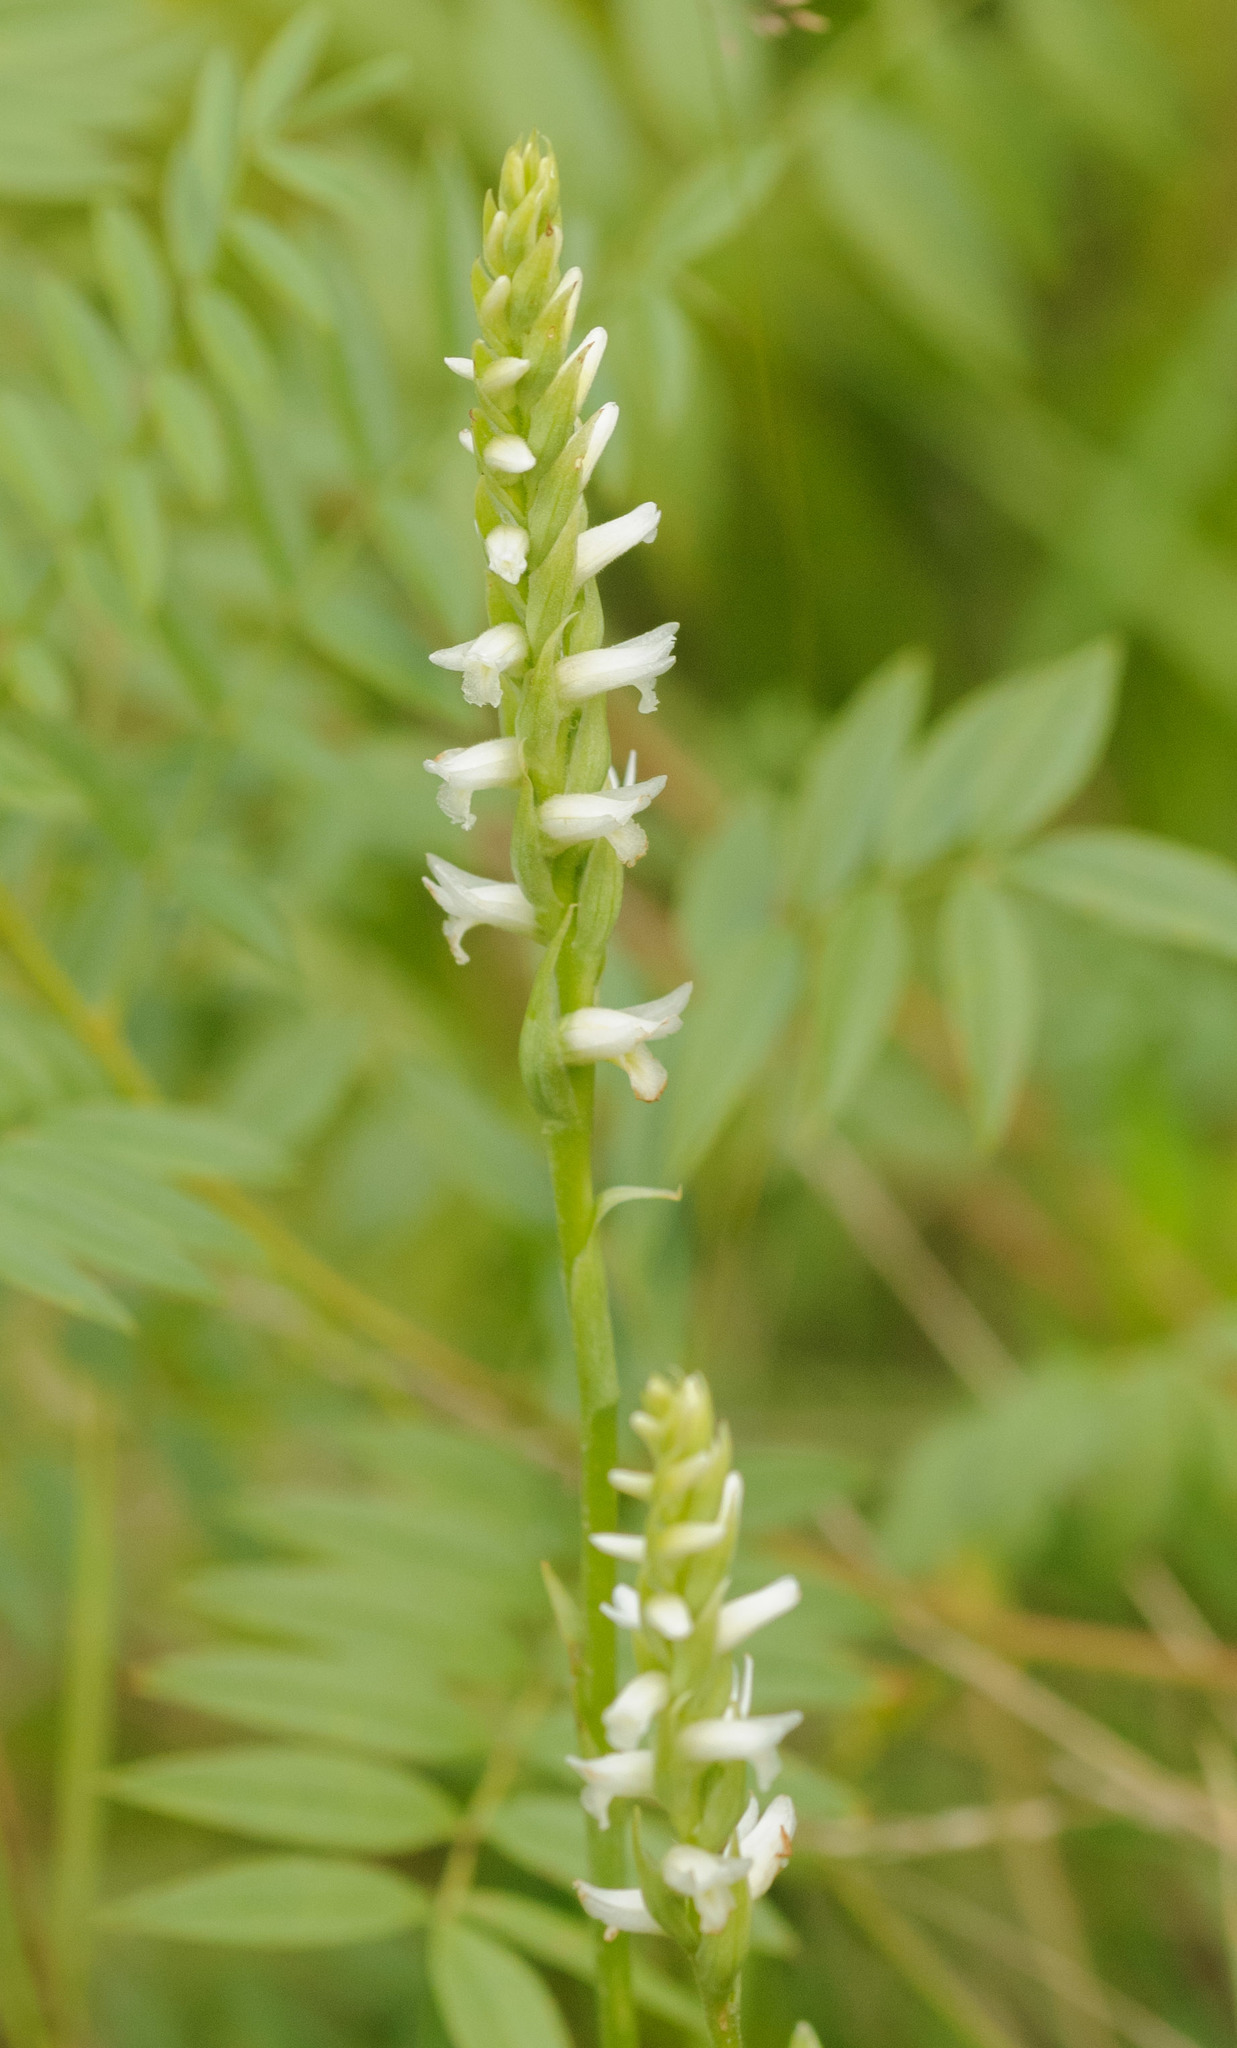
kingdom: Plantae
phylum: Tracheophyta
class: Liliopsida
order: Asparagales
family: Orchidaceae
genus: Spiranthes
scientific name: Spiranthes diluvialis
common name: Ute ladies'-tresses
